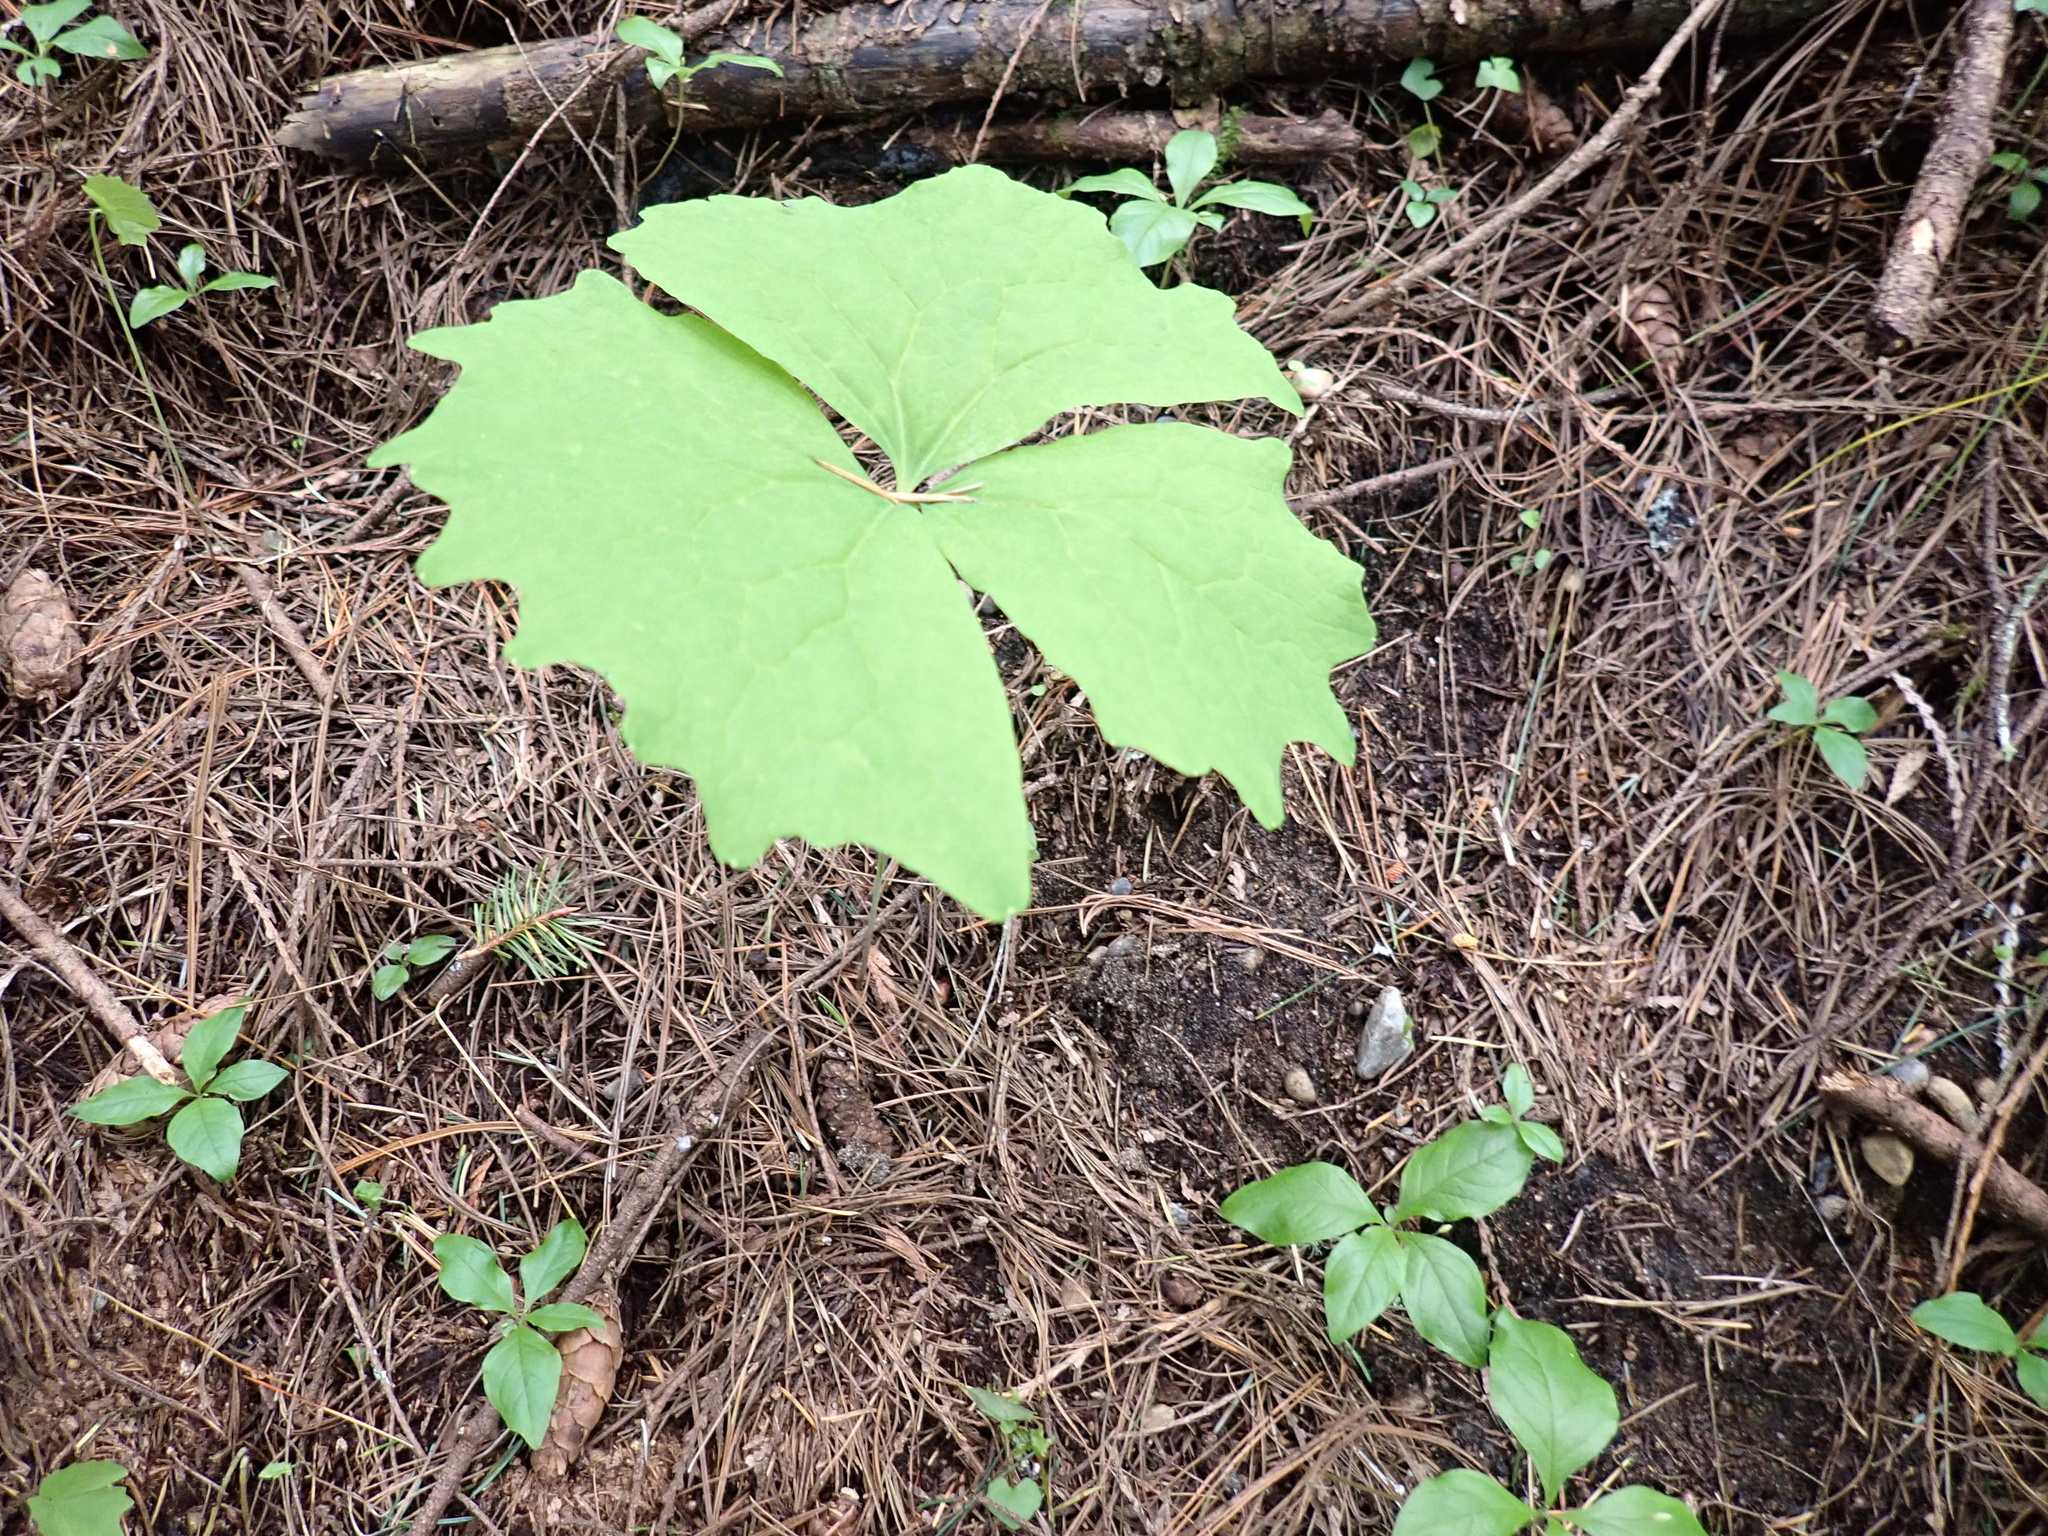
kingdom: Plantae
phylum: Tracheophyta
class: Magnoliopsida
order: Ranunculales
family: Berberidaceae
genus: Achlys
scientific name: Achlys triphylla
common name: Vanilla-leaf
